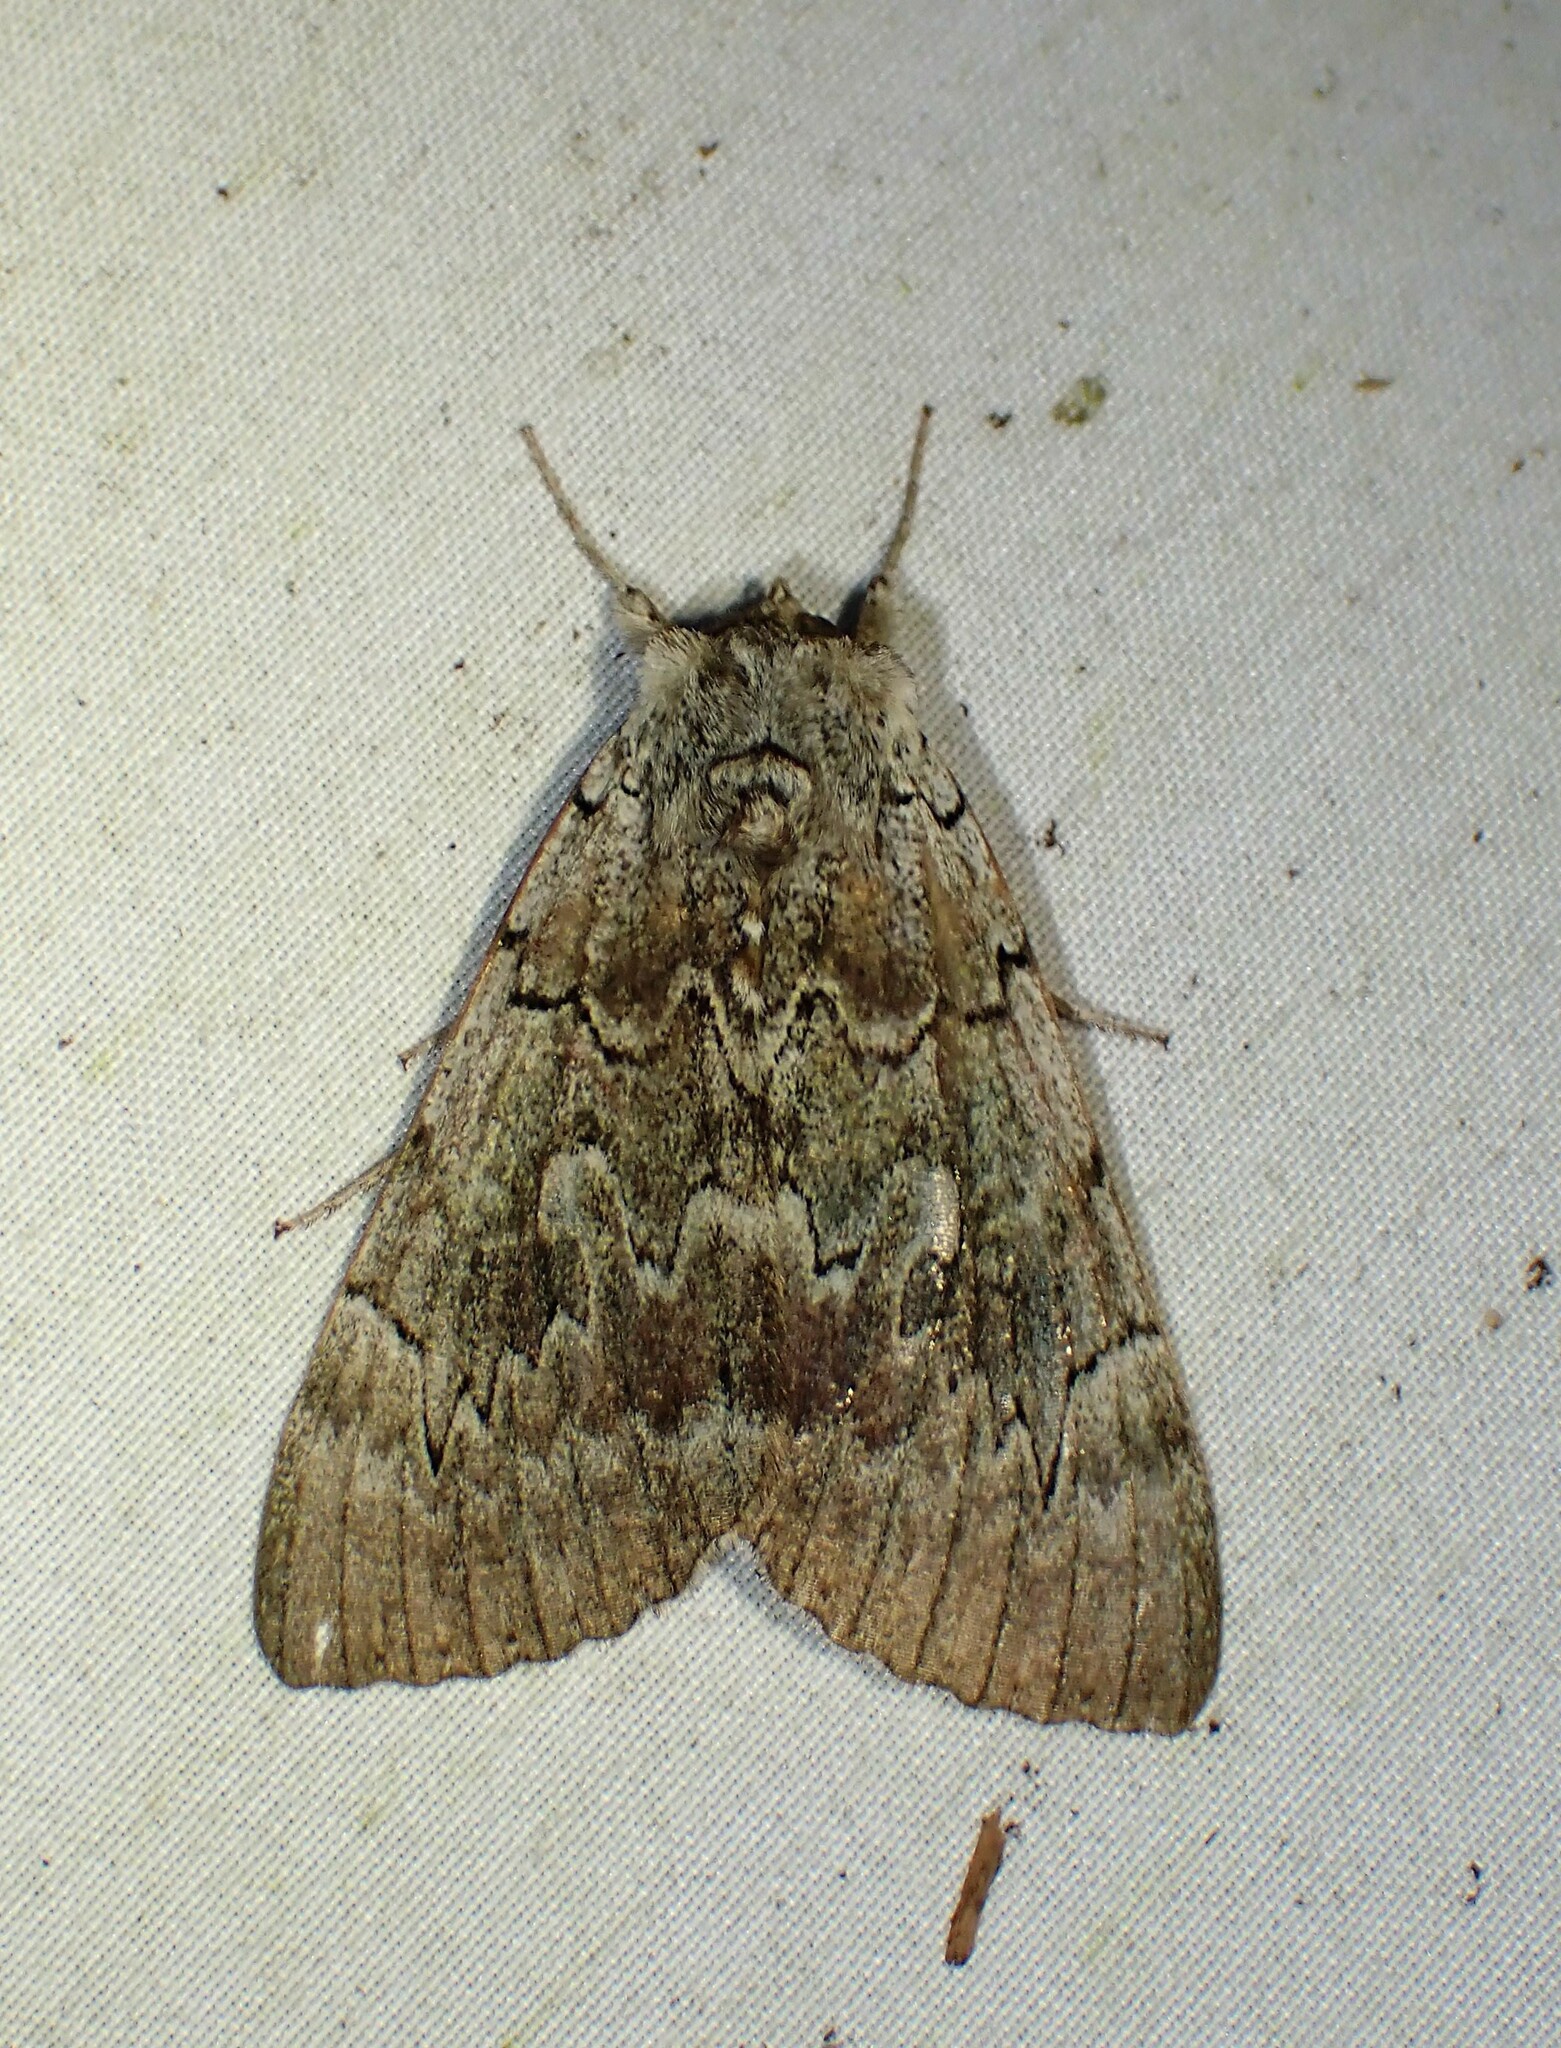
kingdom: Animalia
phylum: Arthropoda
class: Insecta
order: Lepidoptera
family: Erebidae
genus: Catocala
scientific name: Catocala concumbens
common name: Pink underwing
